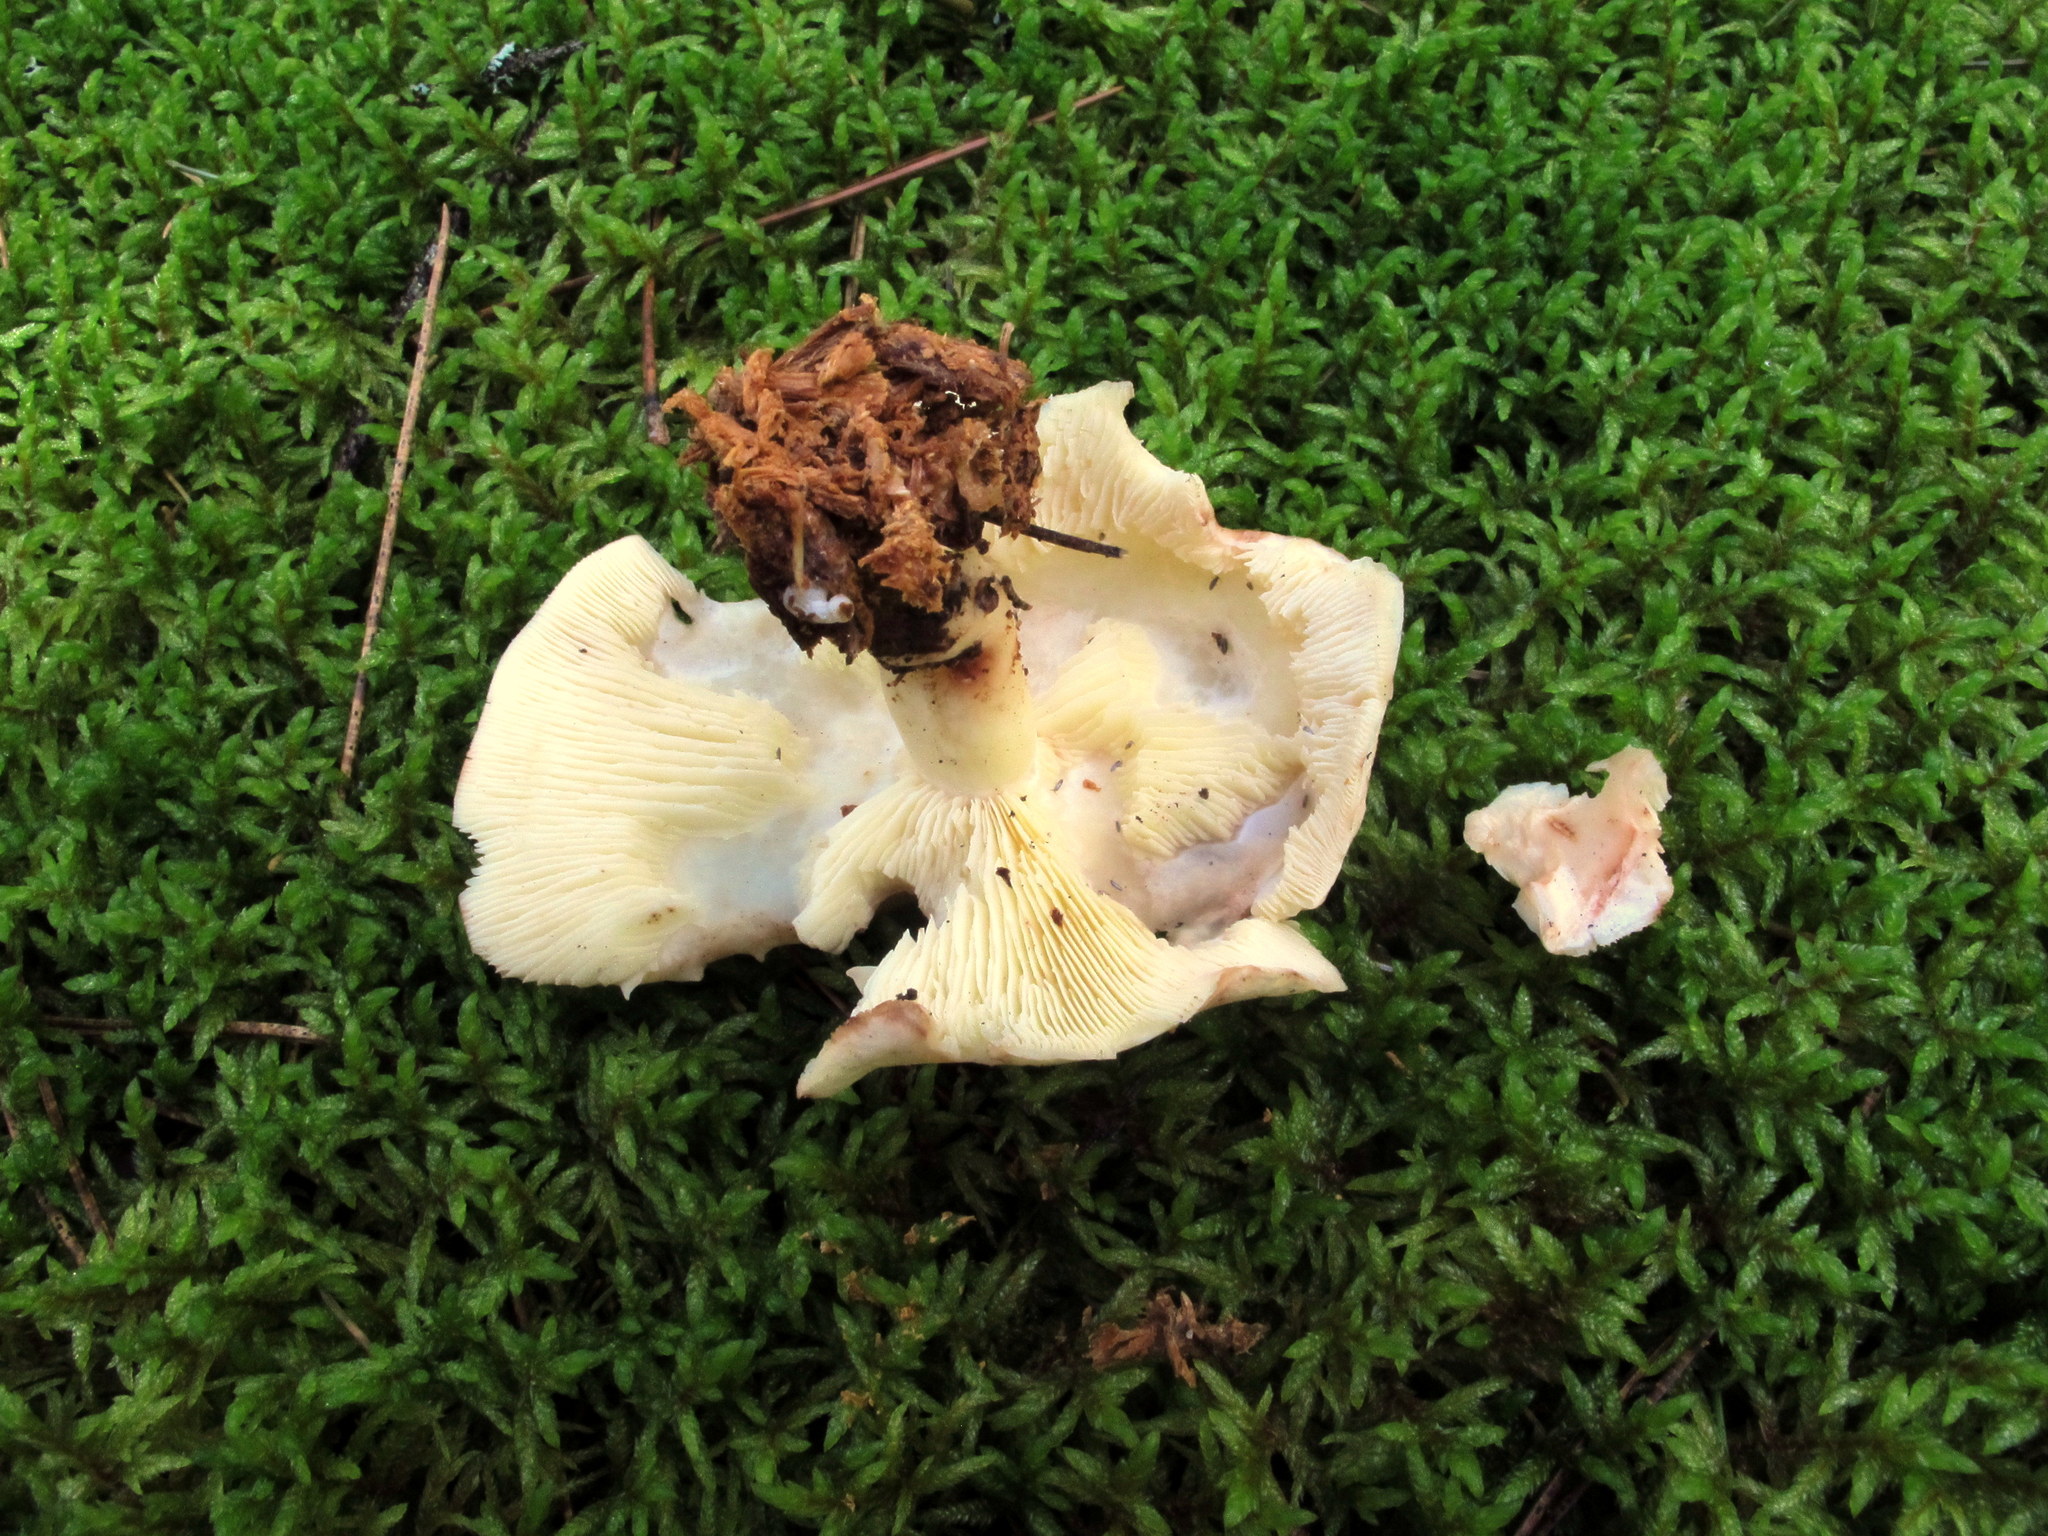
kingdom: Fungi
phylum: Basidiomycota
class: Agaricomycetes
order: Agaricales
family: Omphalotaceae
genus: Rhodocollybia
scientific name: Rhodocollybia maculata
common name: Spotted tough-shank
